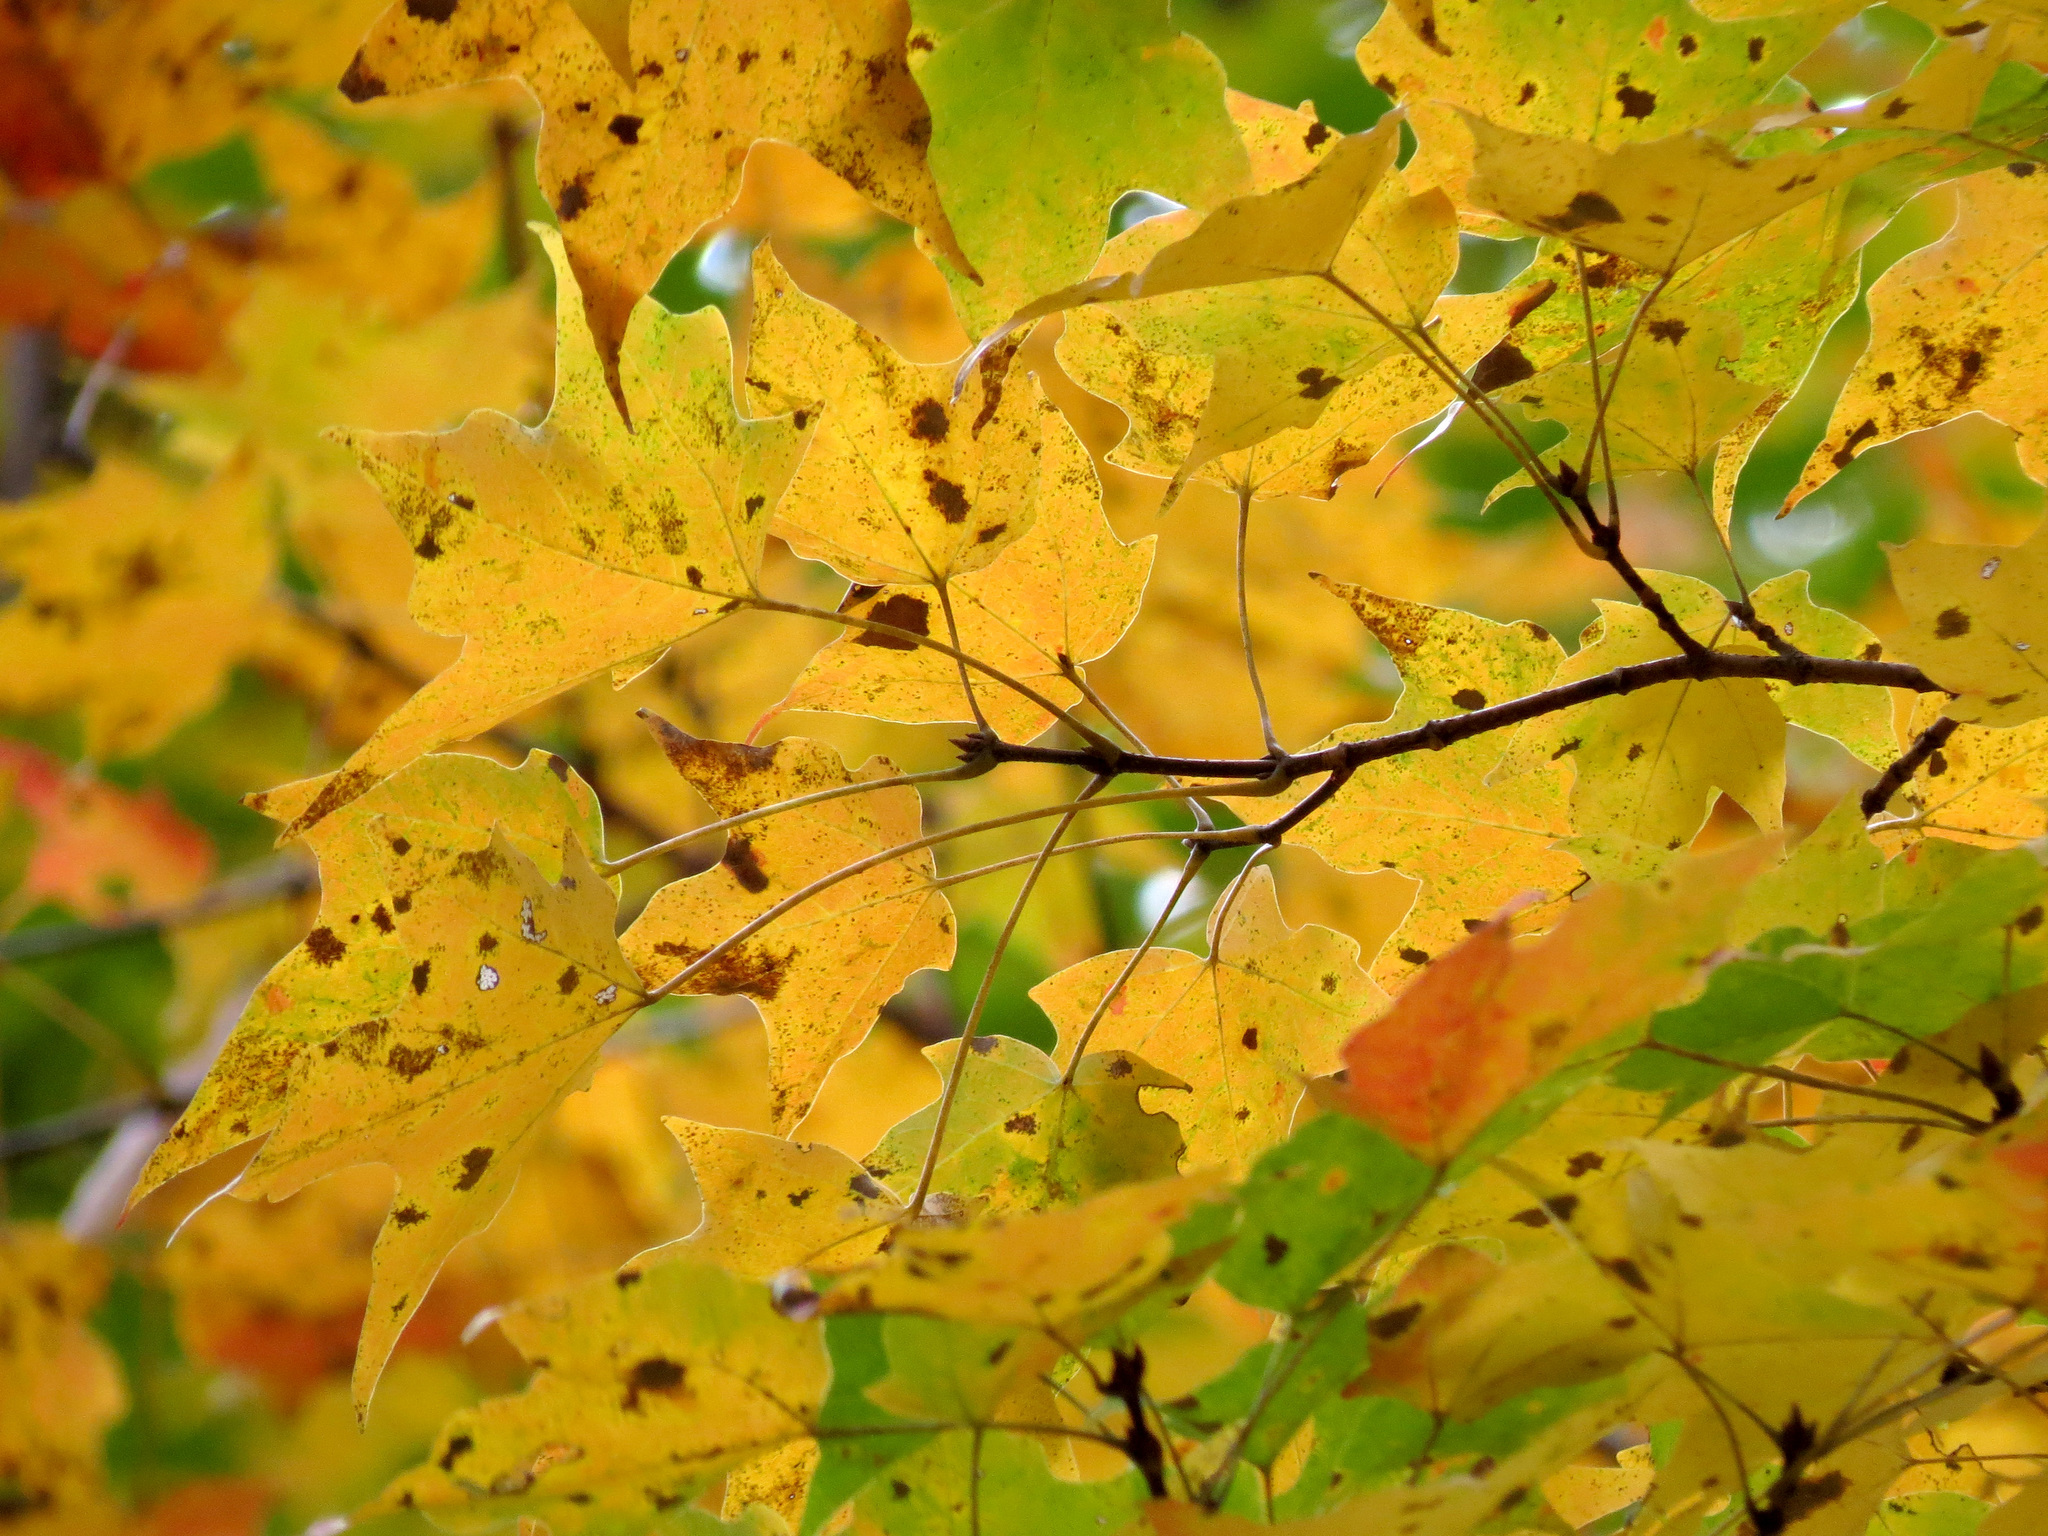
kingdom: Plantae
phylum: Tracheophyta
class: Magnoliopsida
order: Sapindales
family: Sapindaceae
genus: Acer
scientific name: Acer saccharum
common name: Sugar maple
